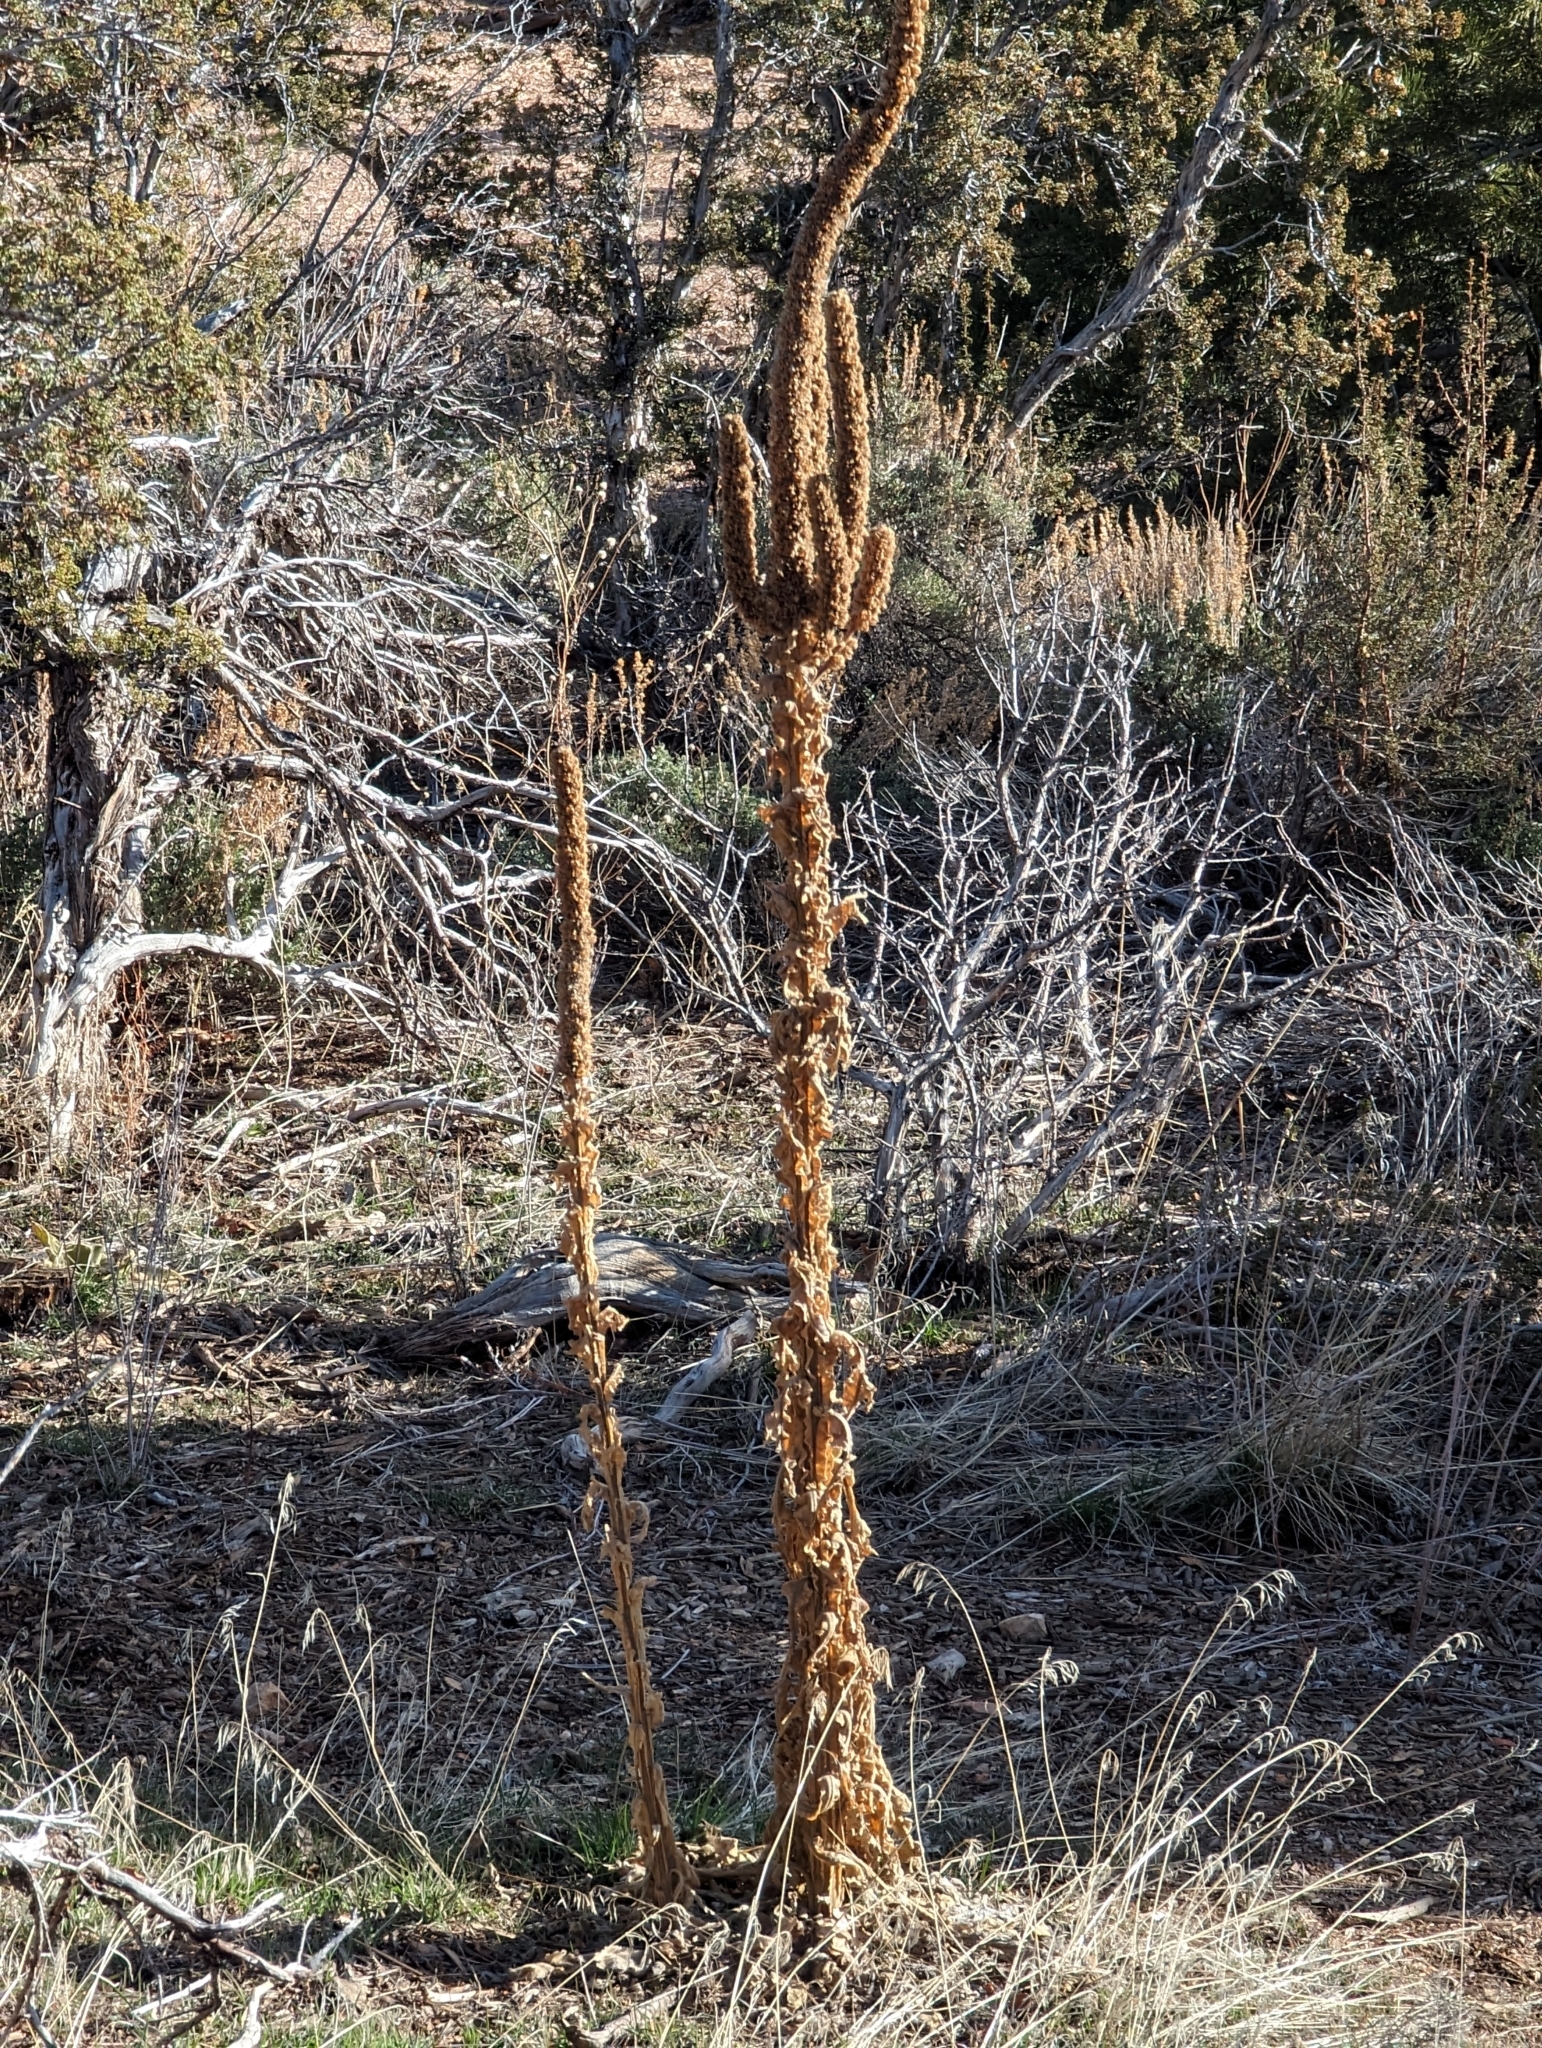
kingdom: Plantae
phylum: Tracheophyta
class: Magnoliopsida
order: Lamiales
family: Scrophulariaceae
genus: Verbascum
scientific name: Verbascum thapsus
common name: Common mullein
